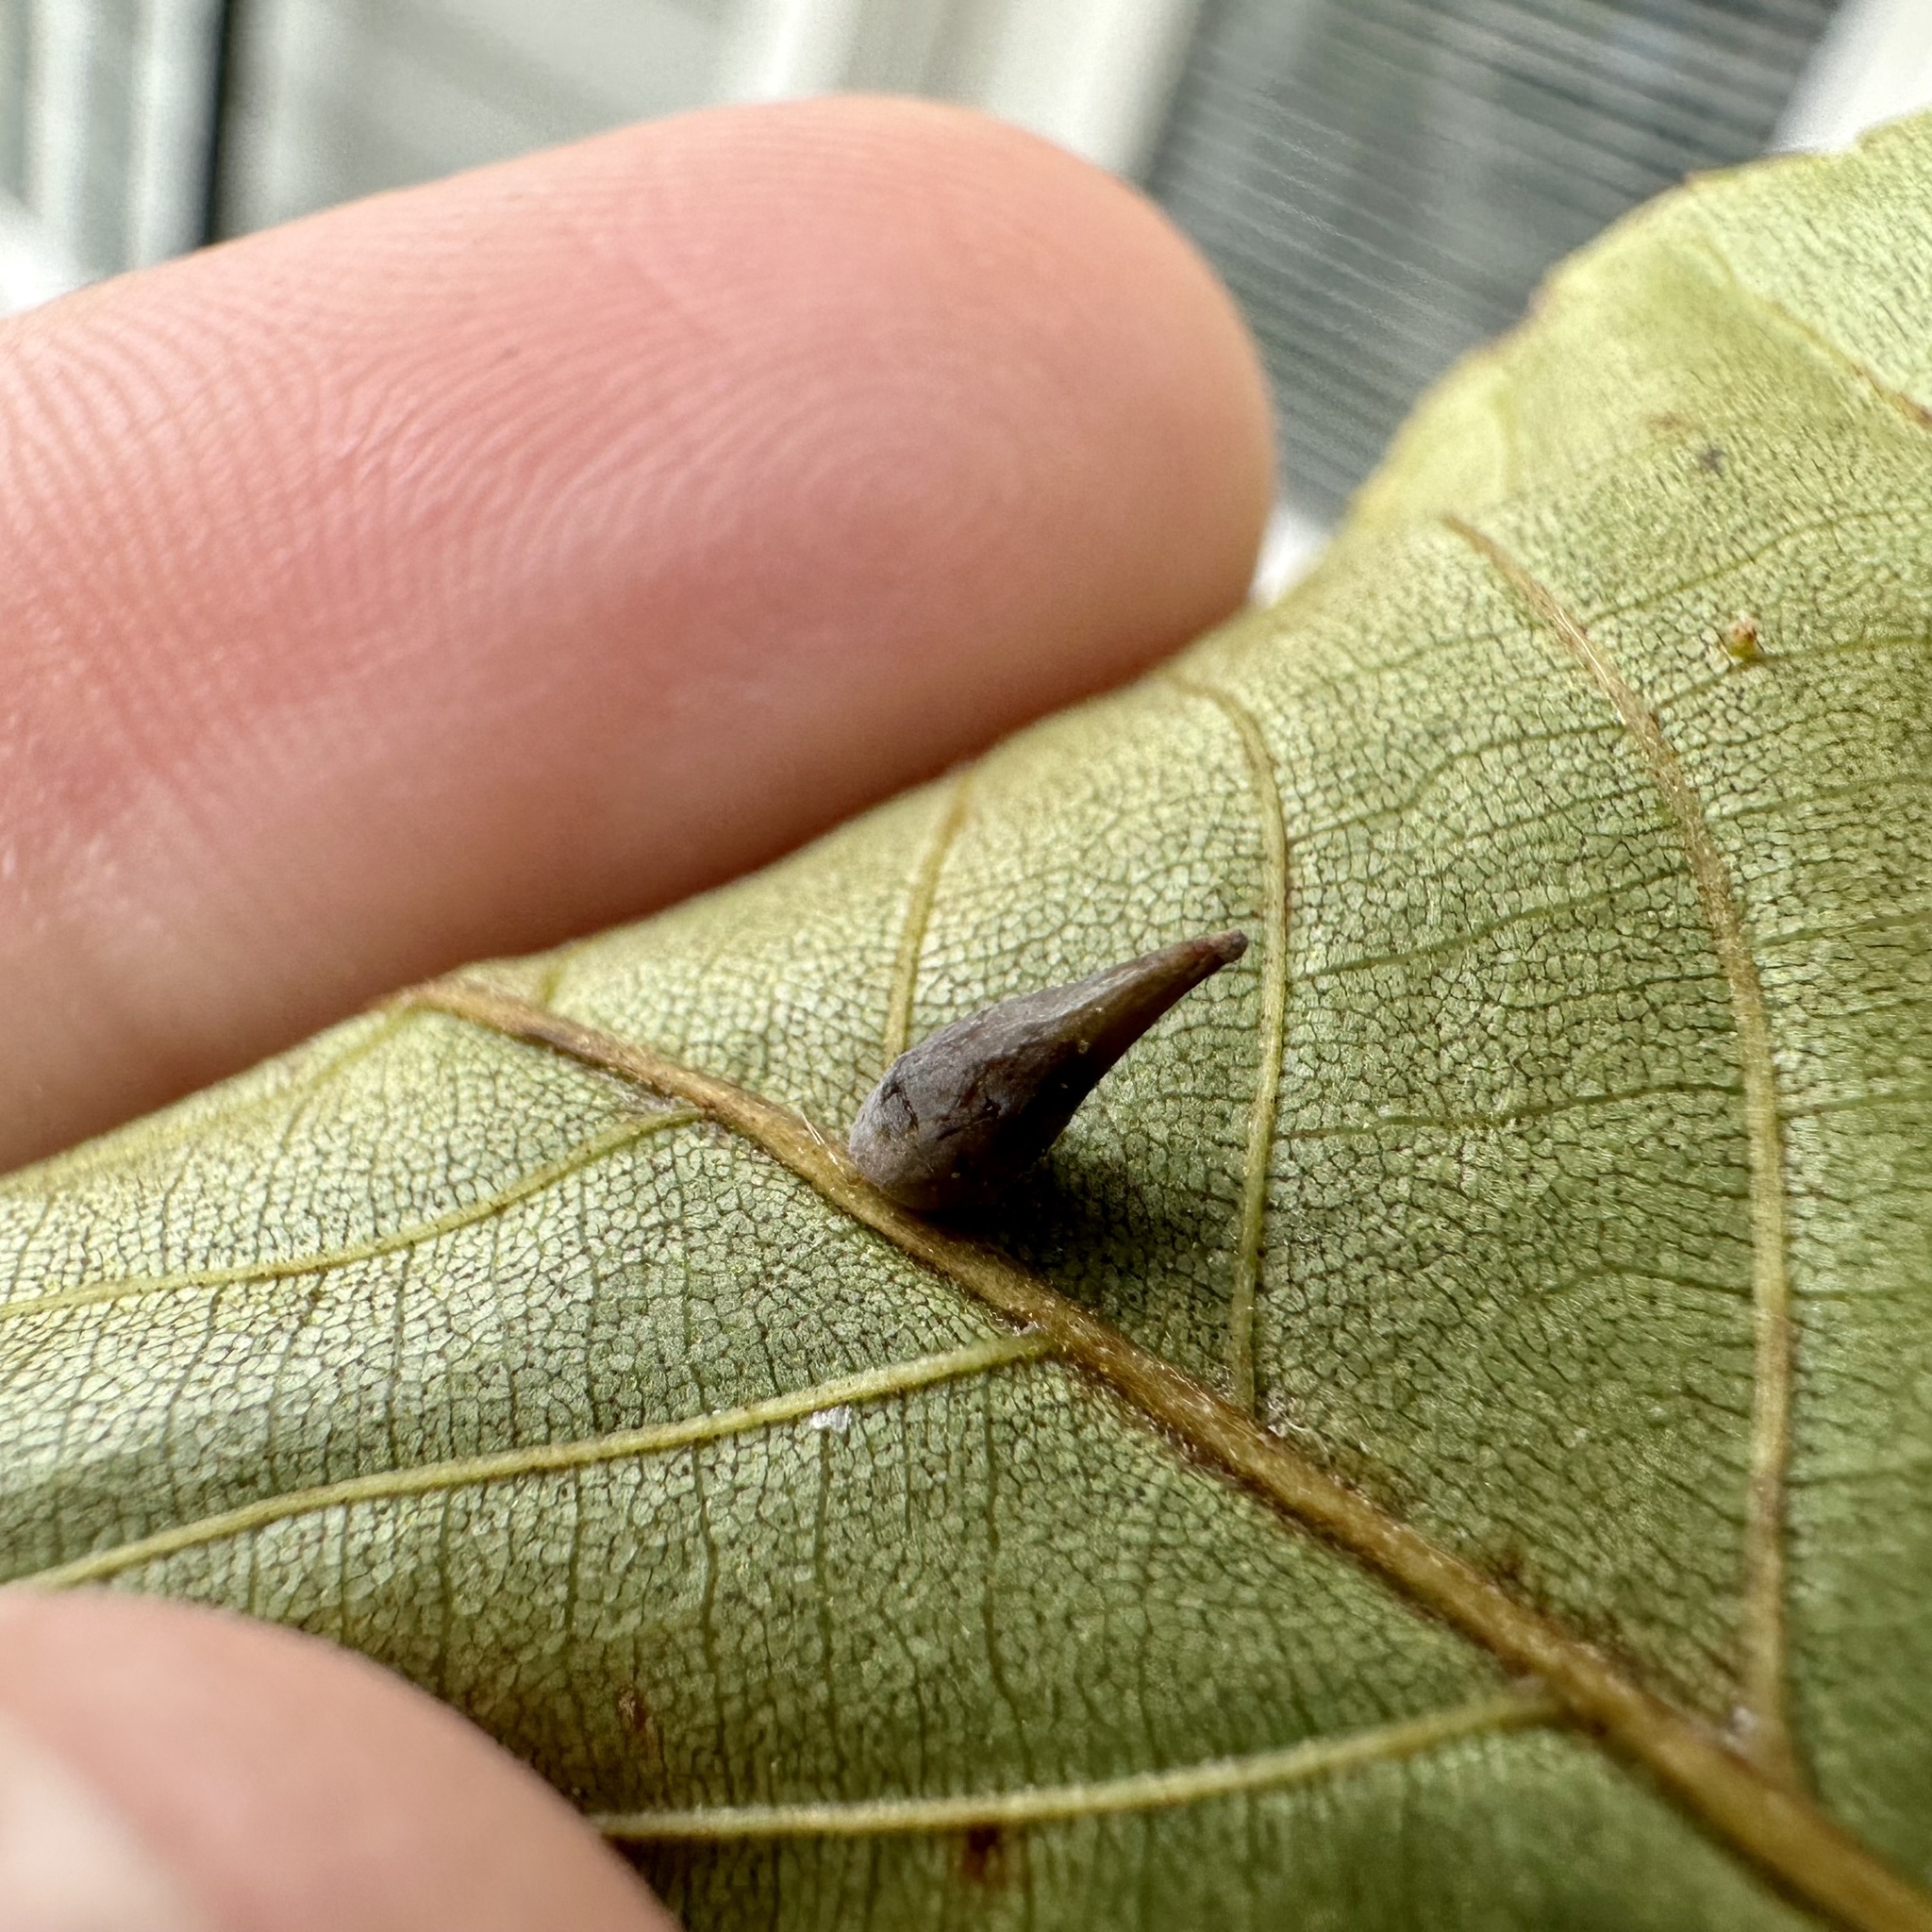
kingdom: Animalia
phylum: Arthropoda
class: Insecta
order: Diptera
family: Cecidomyiidae
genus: Caryomyia
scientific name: Caryomyia caryaecola
